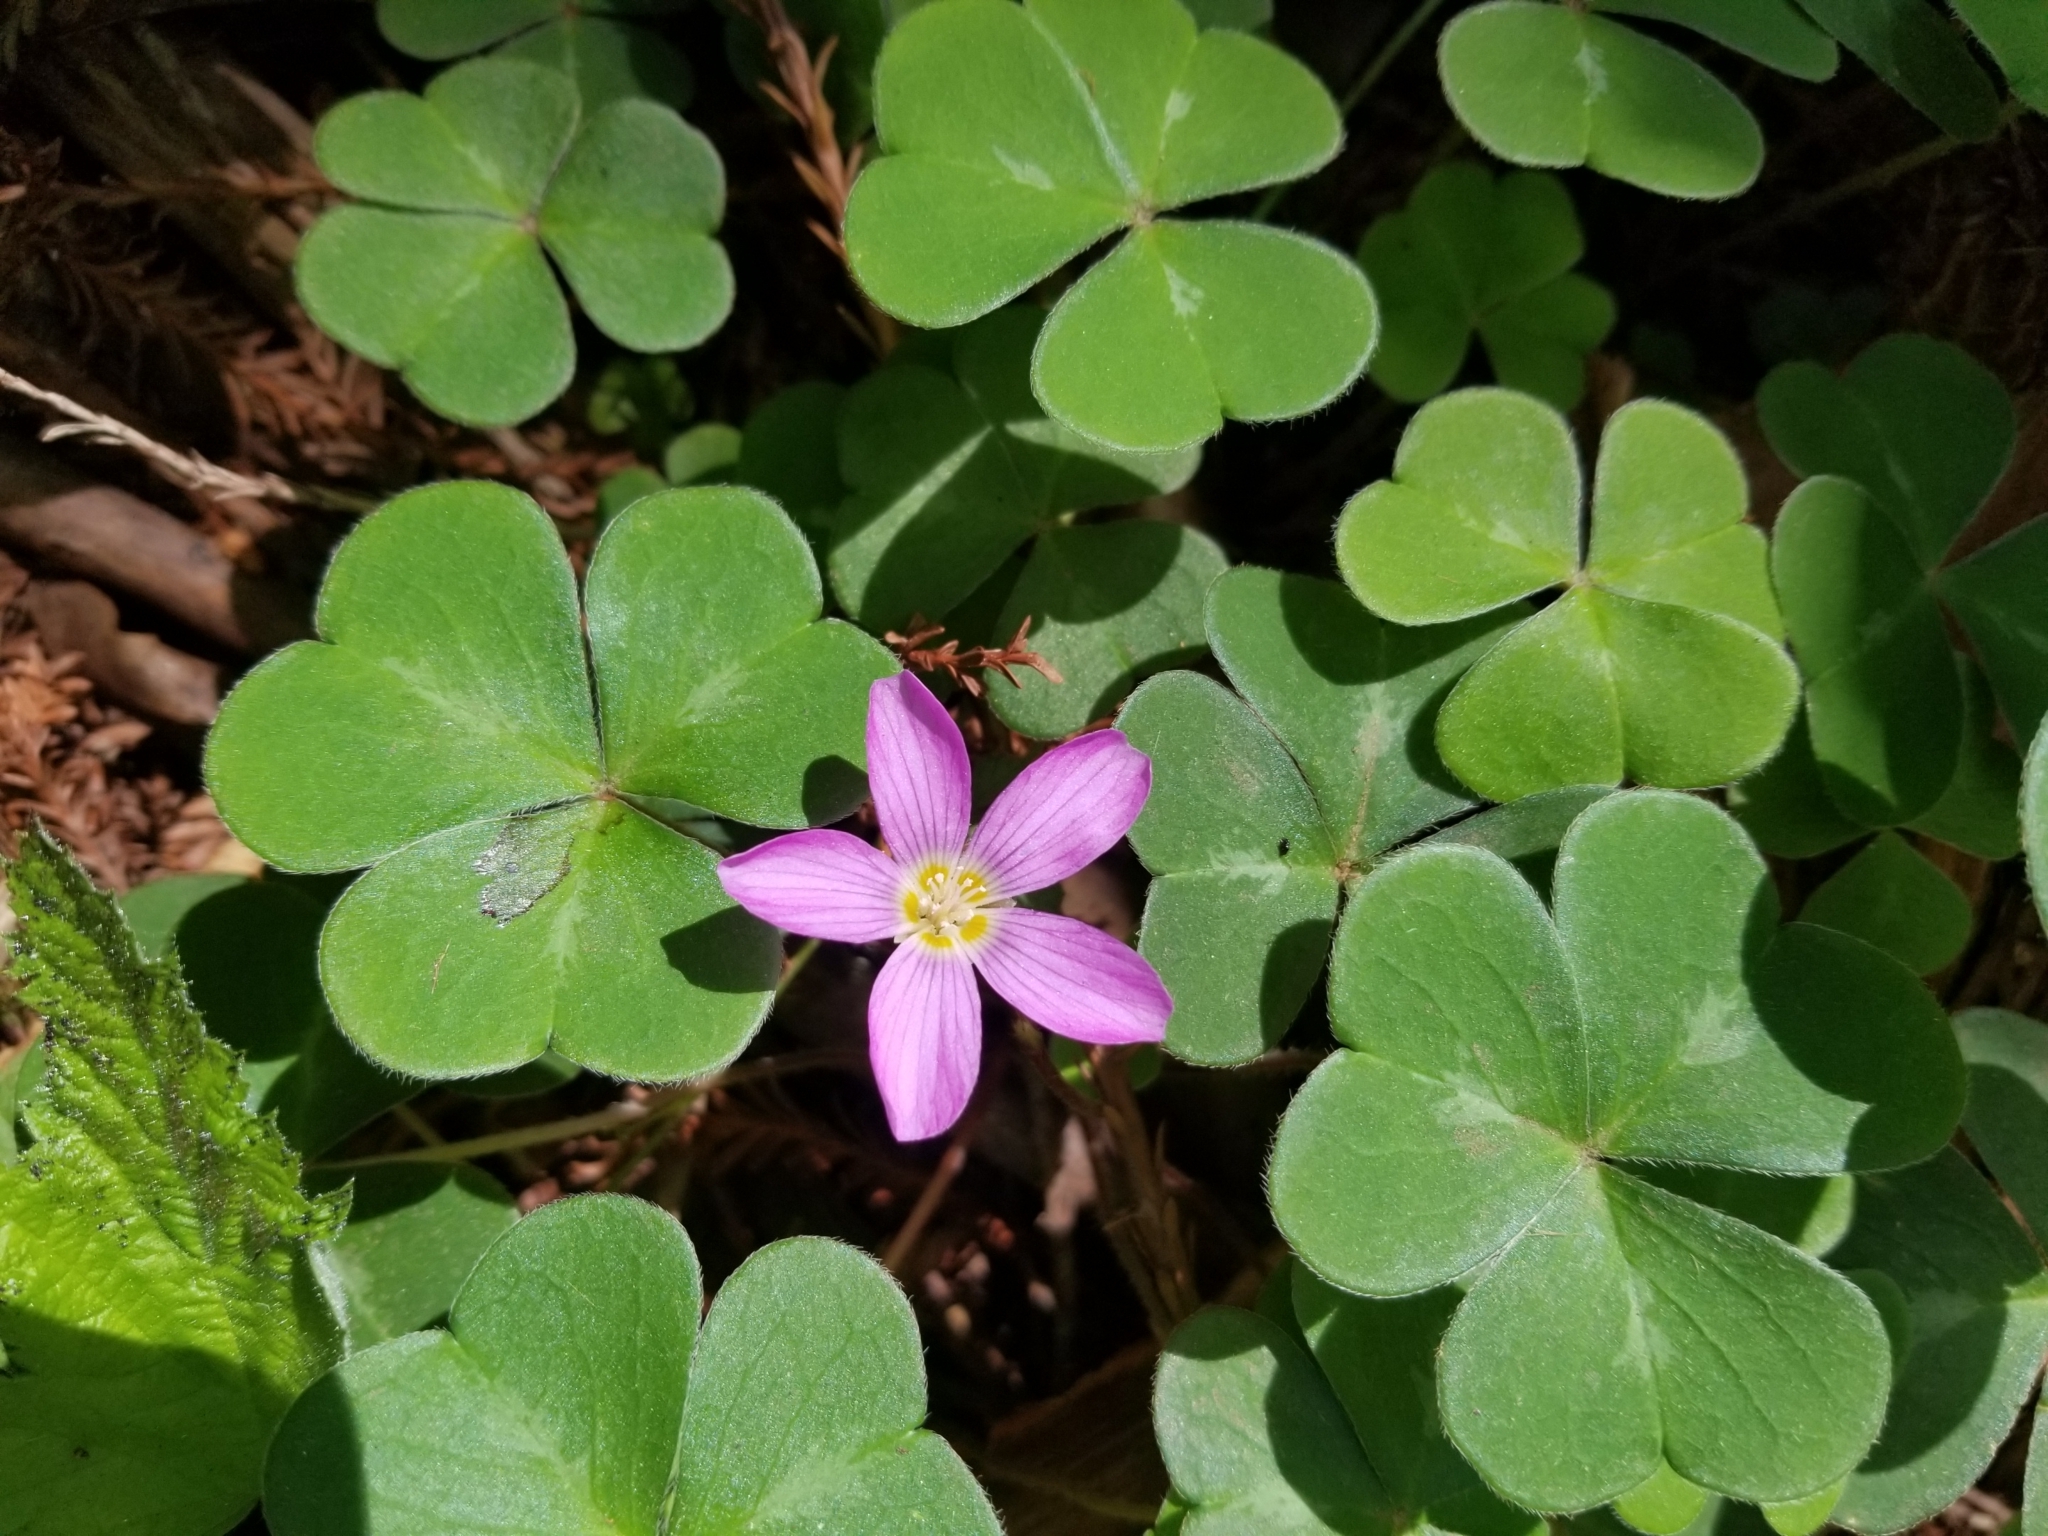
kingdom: Plantae
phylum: Tracheophyta
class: Magnoliopsida
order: Oxalidales
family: Oxalidaceae
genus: Oxalis
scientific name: Oxalis oregana
